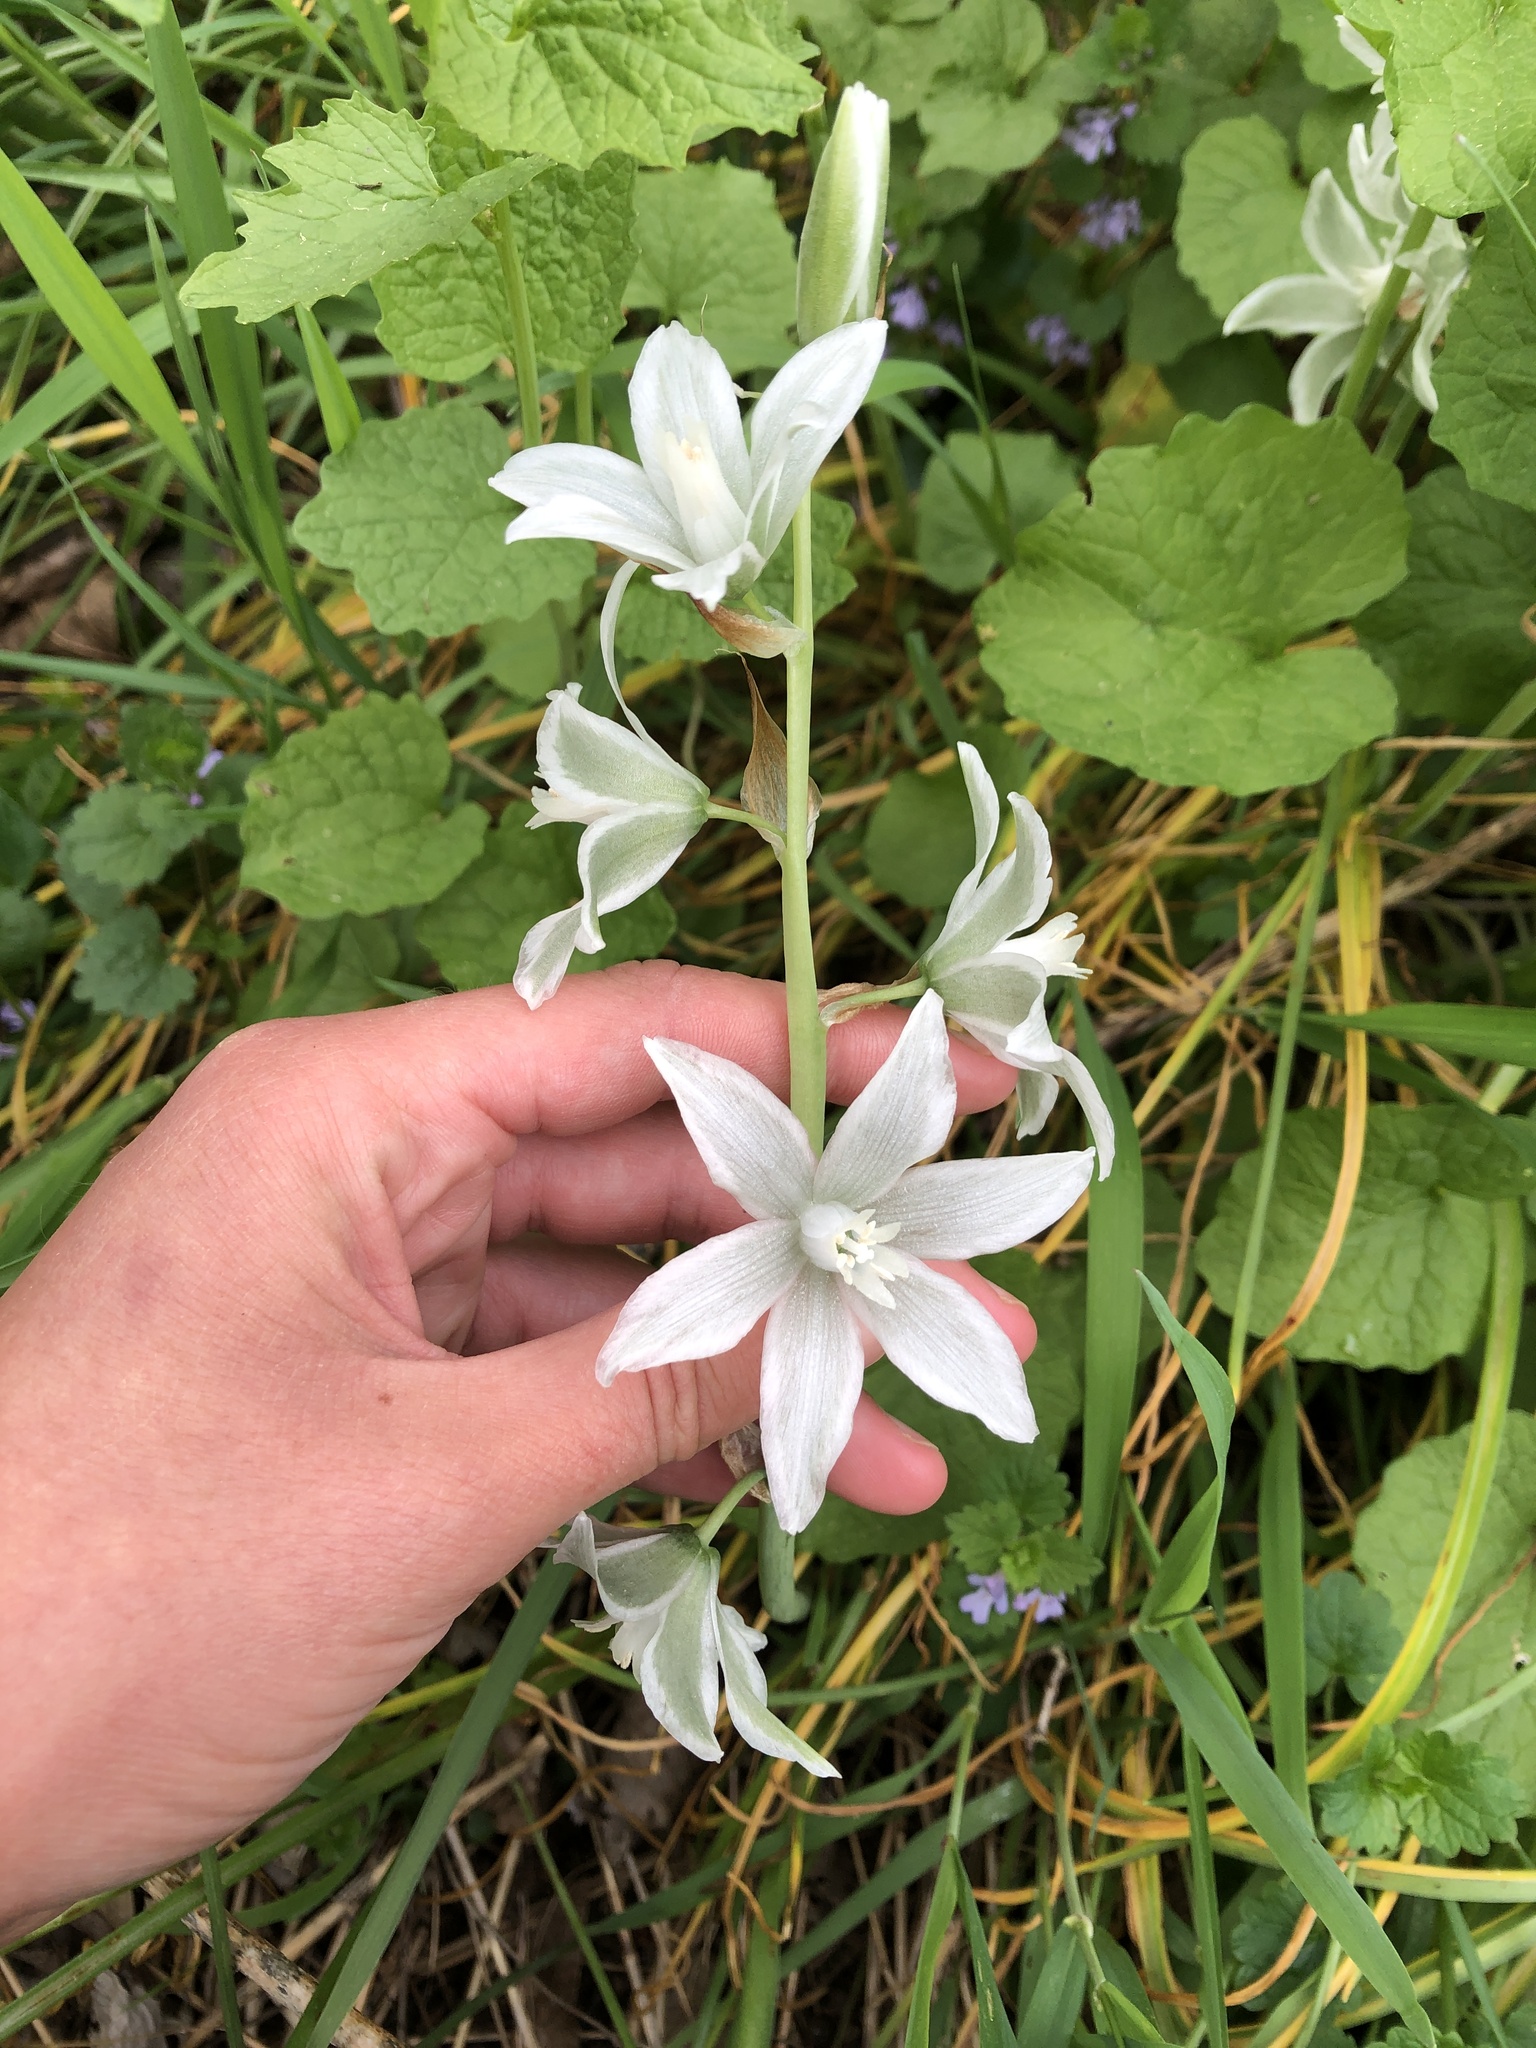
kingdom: Plantae
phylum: Tracheophyta
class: Liliopsida
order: Asparagales
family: Asparagaceae
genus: Ornithogalum
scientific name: Ornithogalum nutans
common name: Drooping star-of-bethlehem
